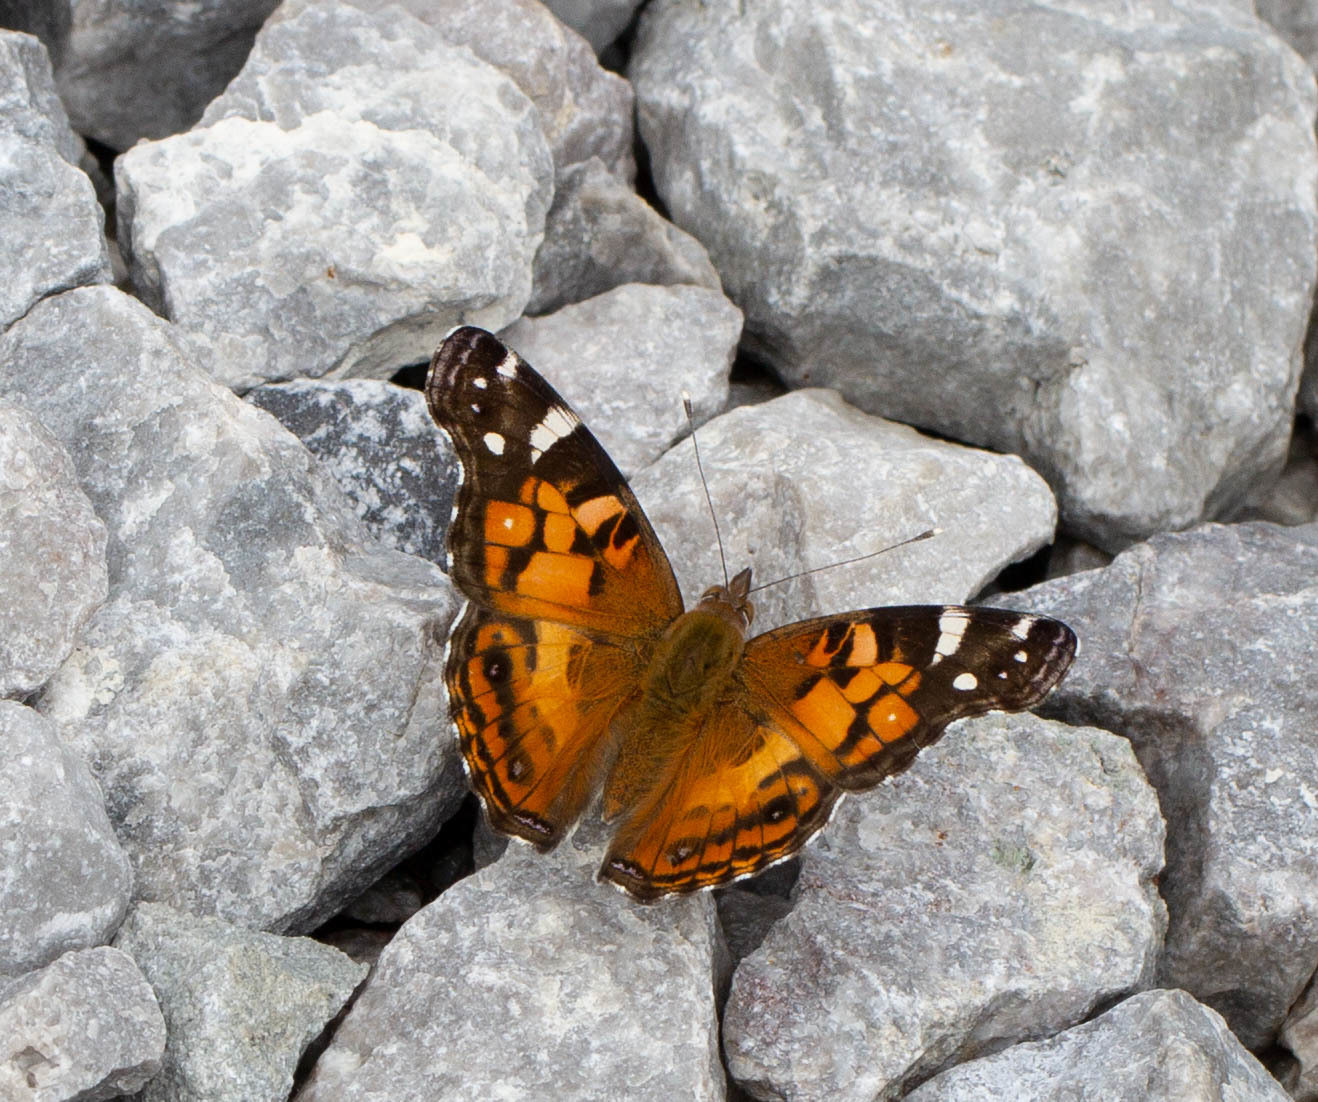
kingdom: Animalia
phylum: Arthropoda
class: Insecta
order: Lepidoptera
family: Nymphalidae
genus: Vanessa
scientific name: Vanessa virginiensis
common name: American lady
